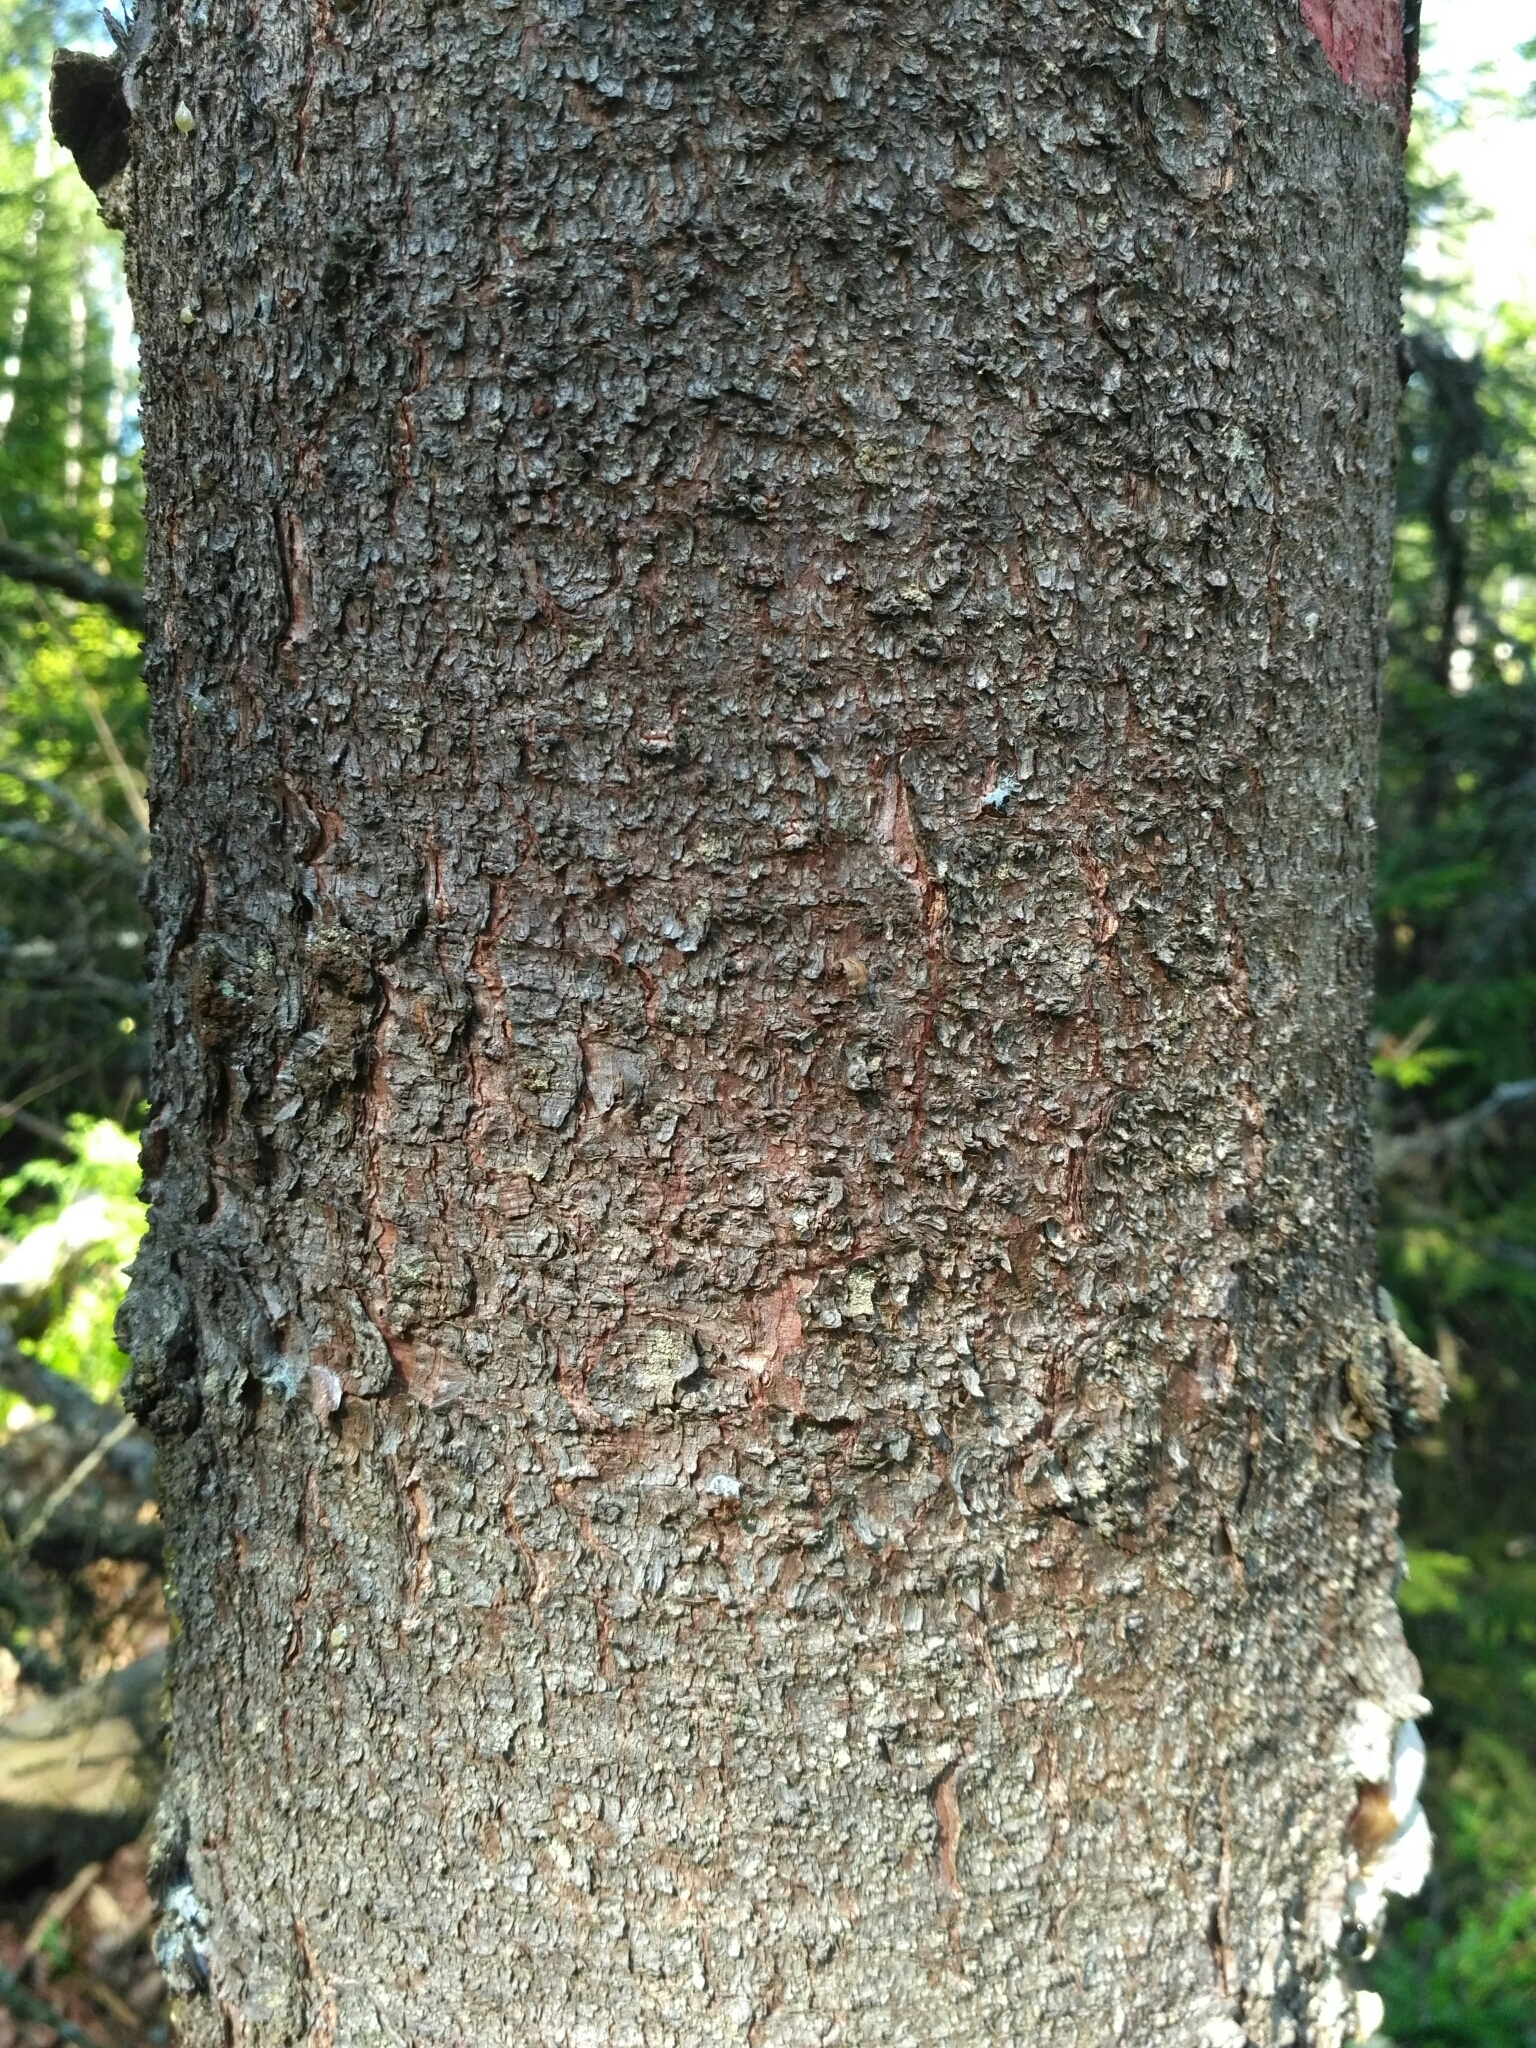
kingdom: Plantae
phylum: Tracheophyta
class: Pinopsida
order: Pinales
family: Pinaceae
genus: Picea
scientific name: Picea abies
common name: Norway spruce
